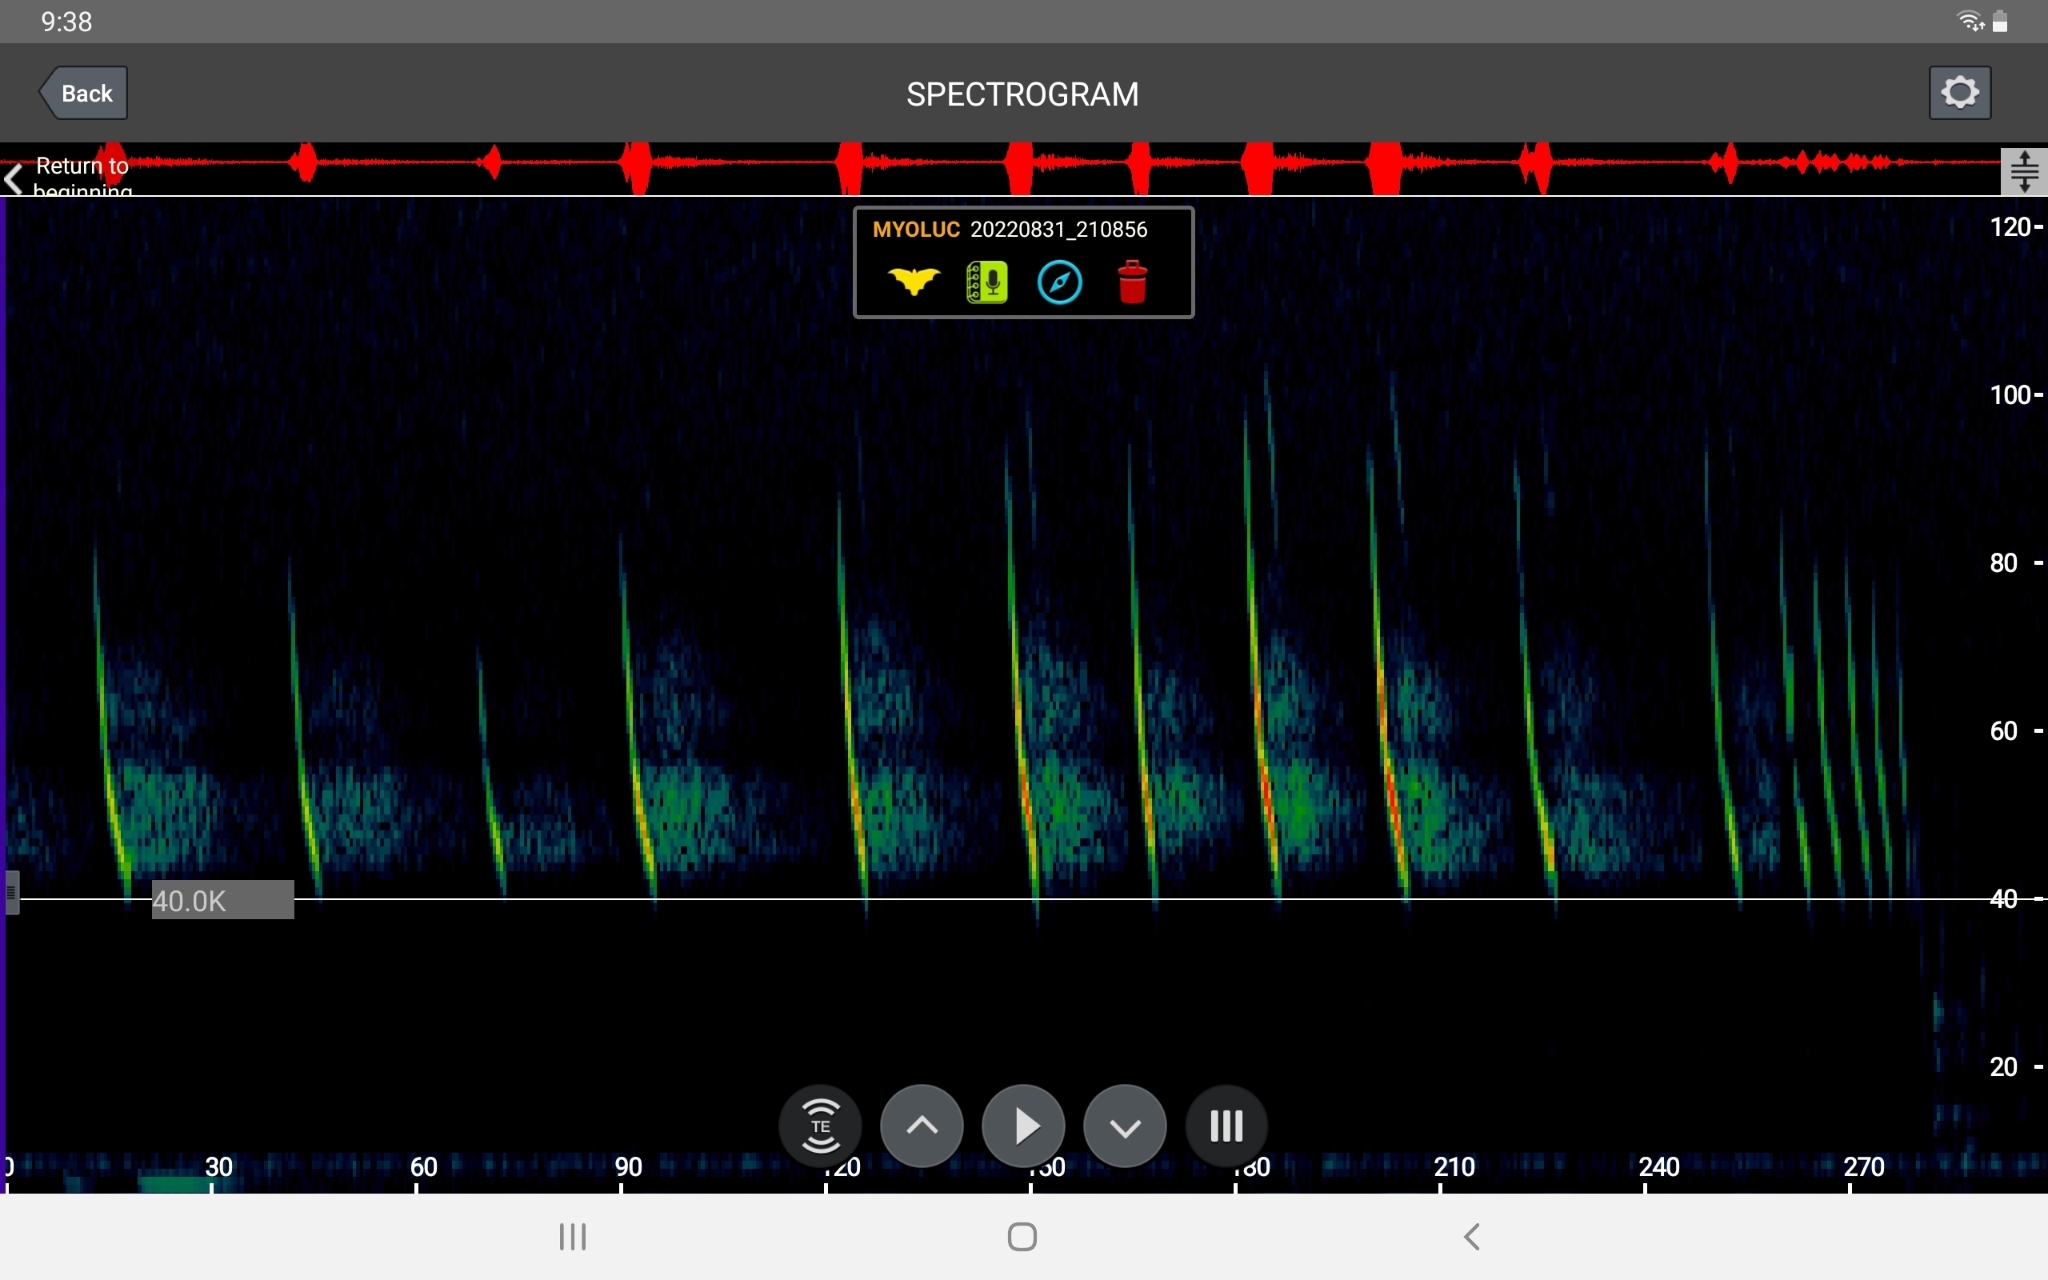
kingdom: Animalia
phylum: Chordata
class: Mammalia
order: Chiroptera
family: Vespertilionidae
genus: Myotis
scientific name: Myotis lucifugus
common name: Little brown bat
